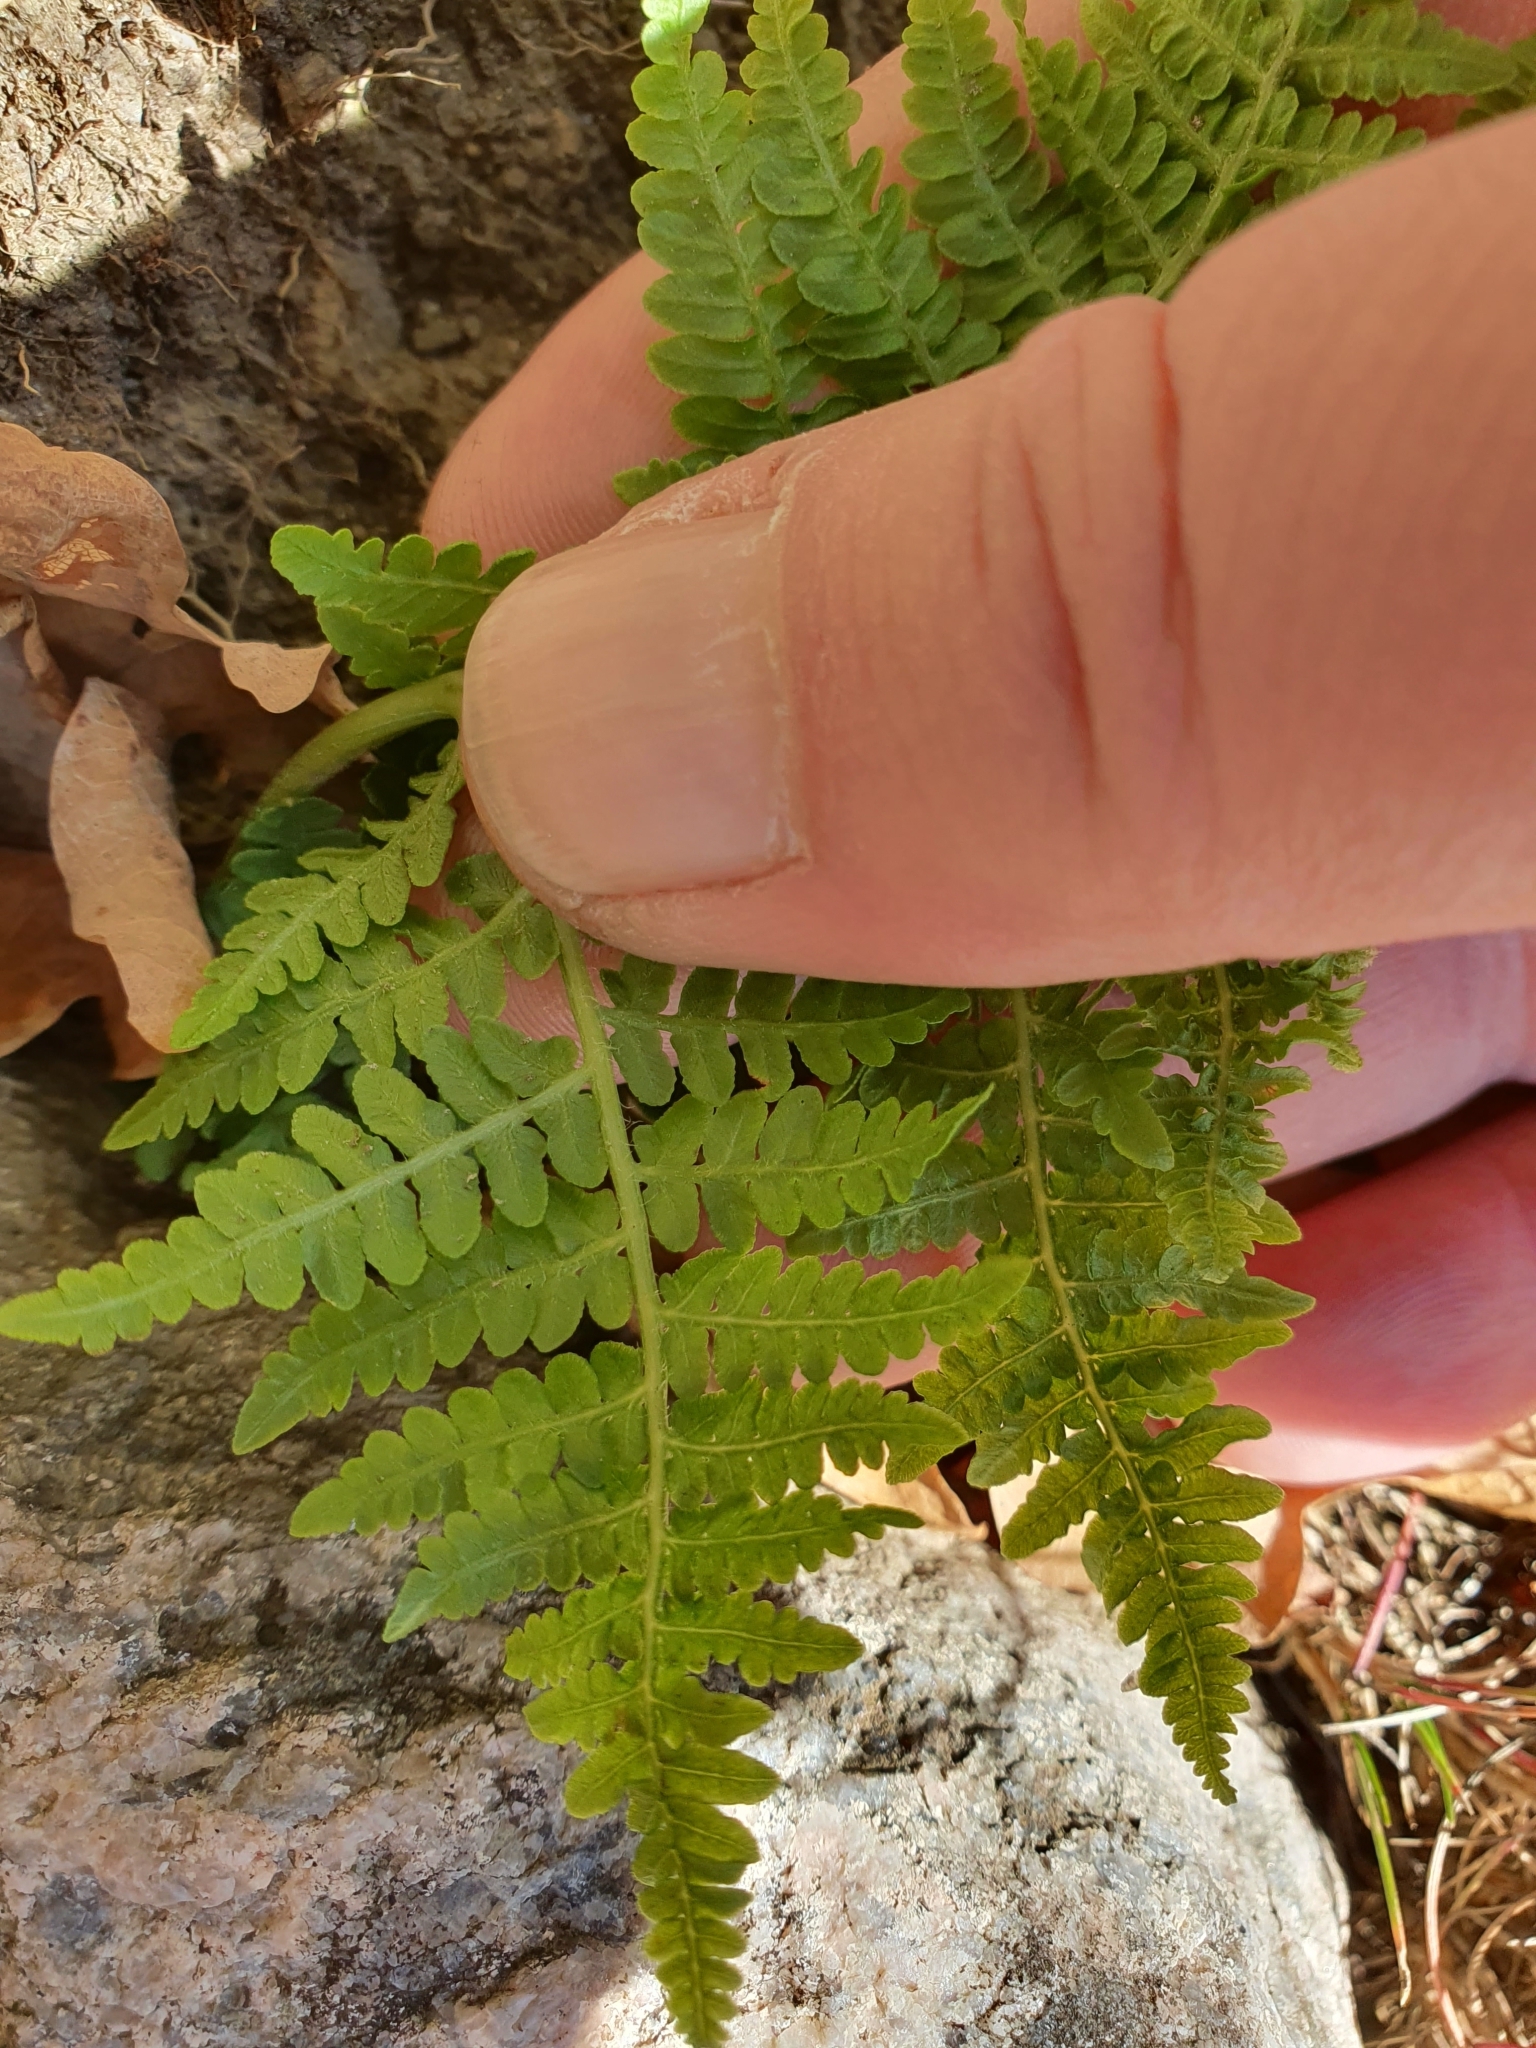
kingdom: Plantae
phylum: Tracheophyta
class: Polypodiopsida
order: Polypodiales
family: Dennstaedtiaceae
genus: Pteridium
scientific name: Pteridium aquilinum
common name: Bracken
